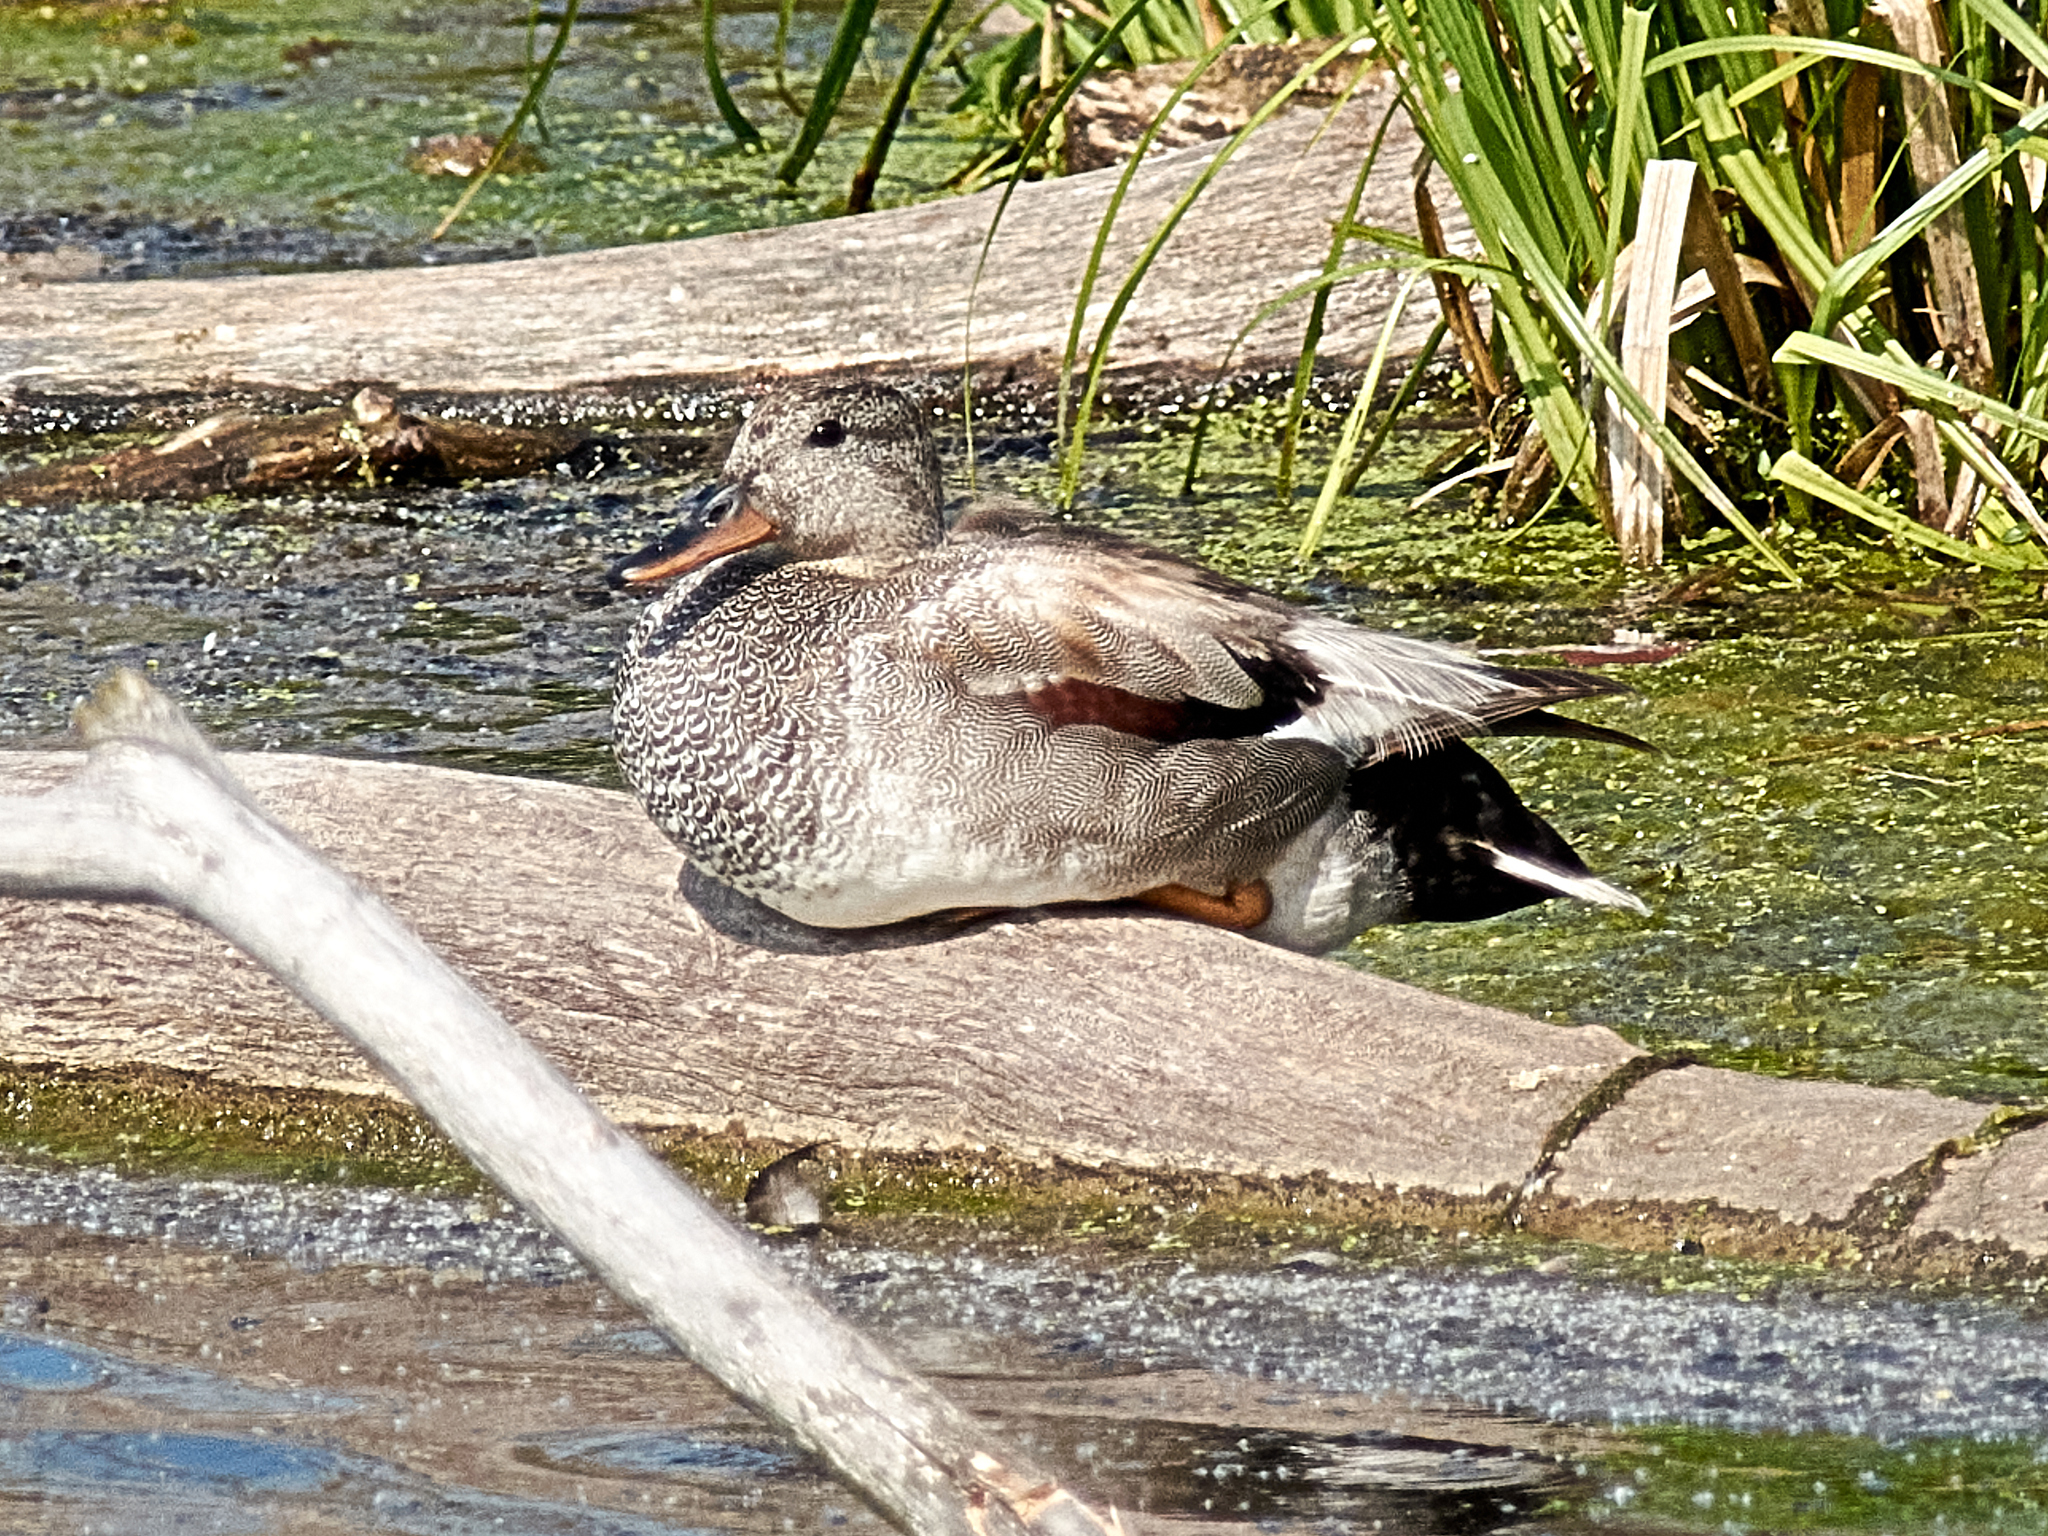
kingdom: Animalia
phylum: Chordata
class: Aves
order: Anseriformes
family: Anatidae
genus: Mareca
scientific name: Mareca strepera
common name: Gadwall
